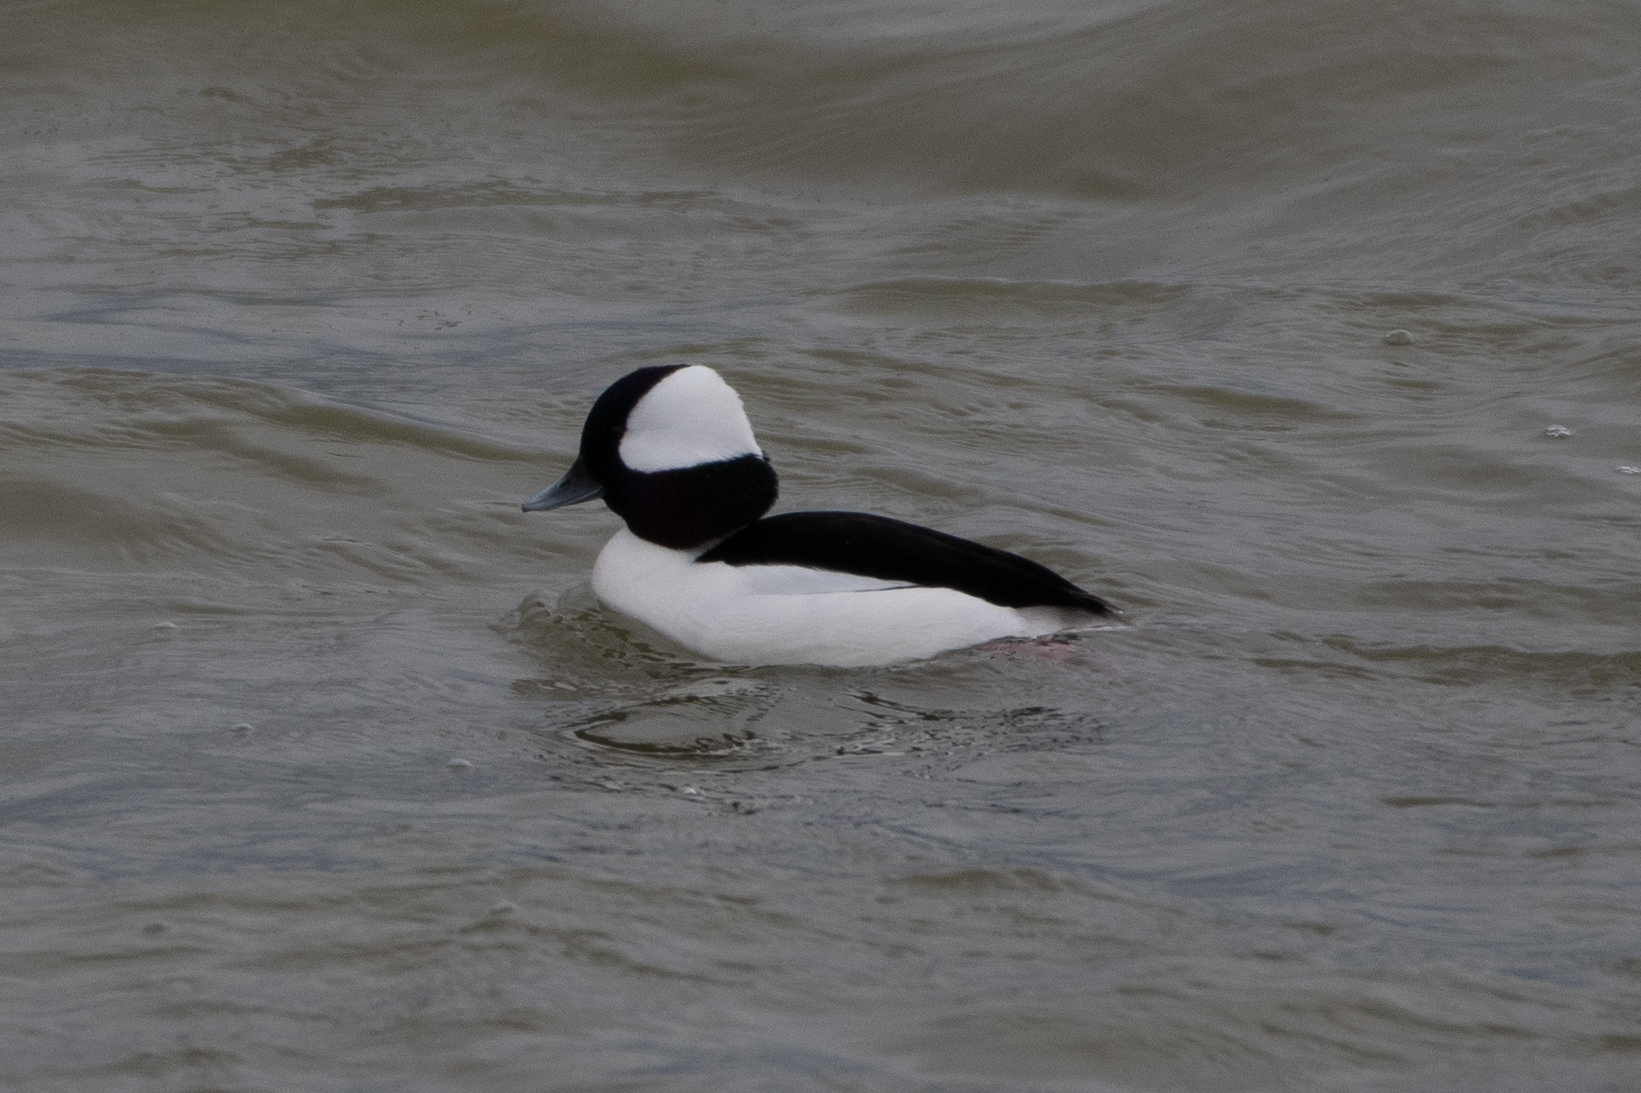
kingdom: Animalia
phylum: Chordata
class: Aves
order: Anseriformes
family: Anatidae
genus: Bucephala
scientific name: Bucephala albeola
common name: Bufflehead
